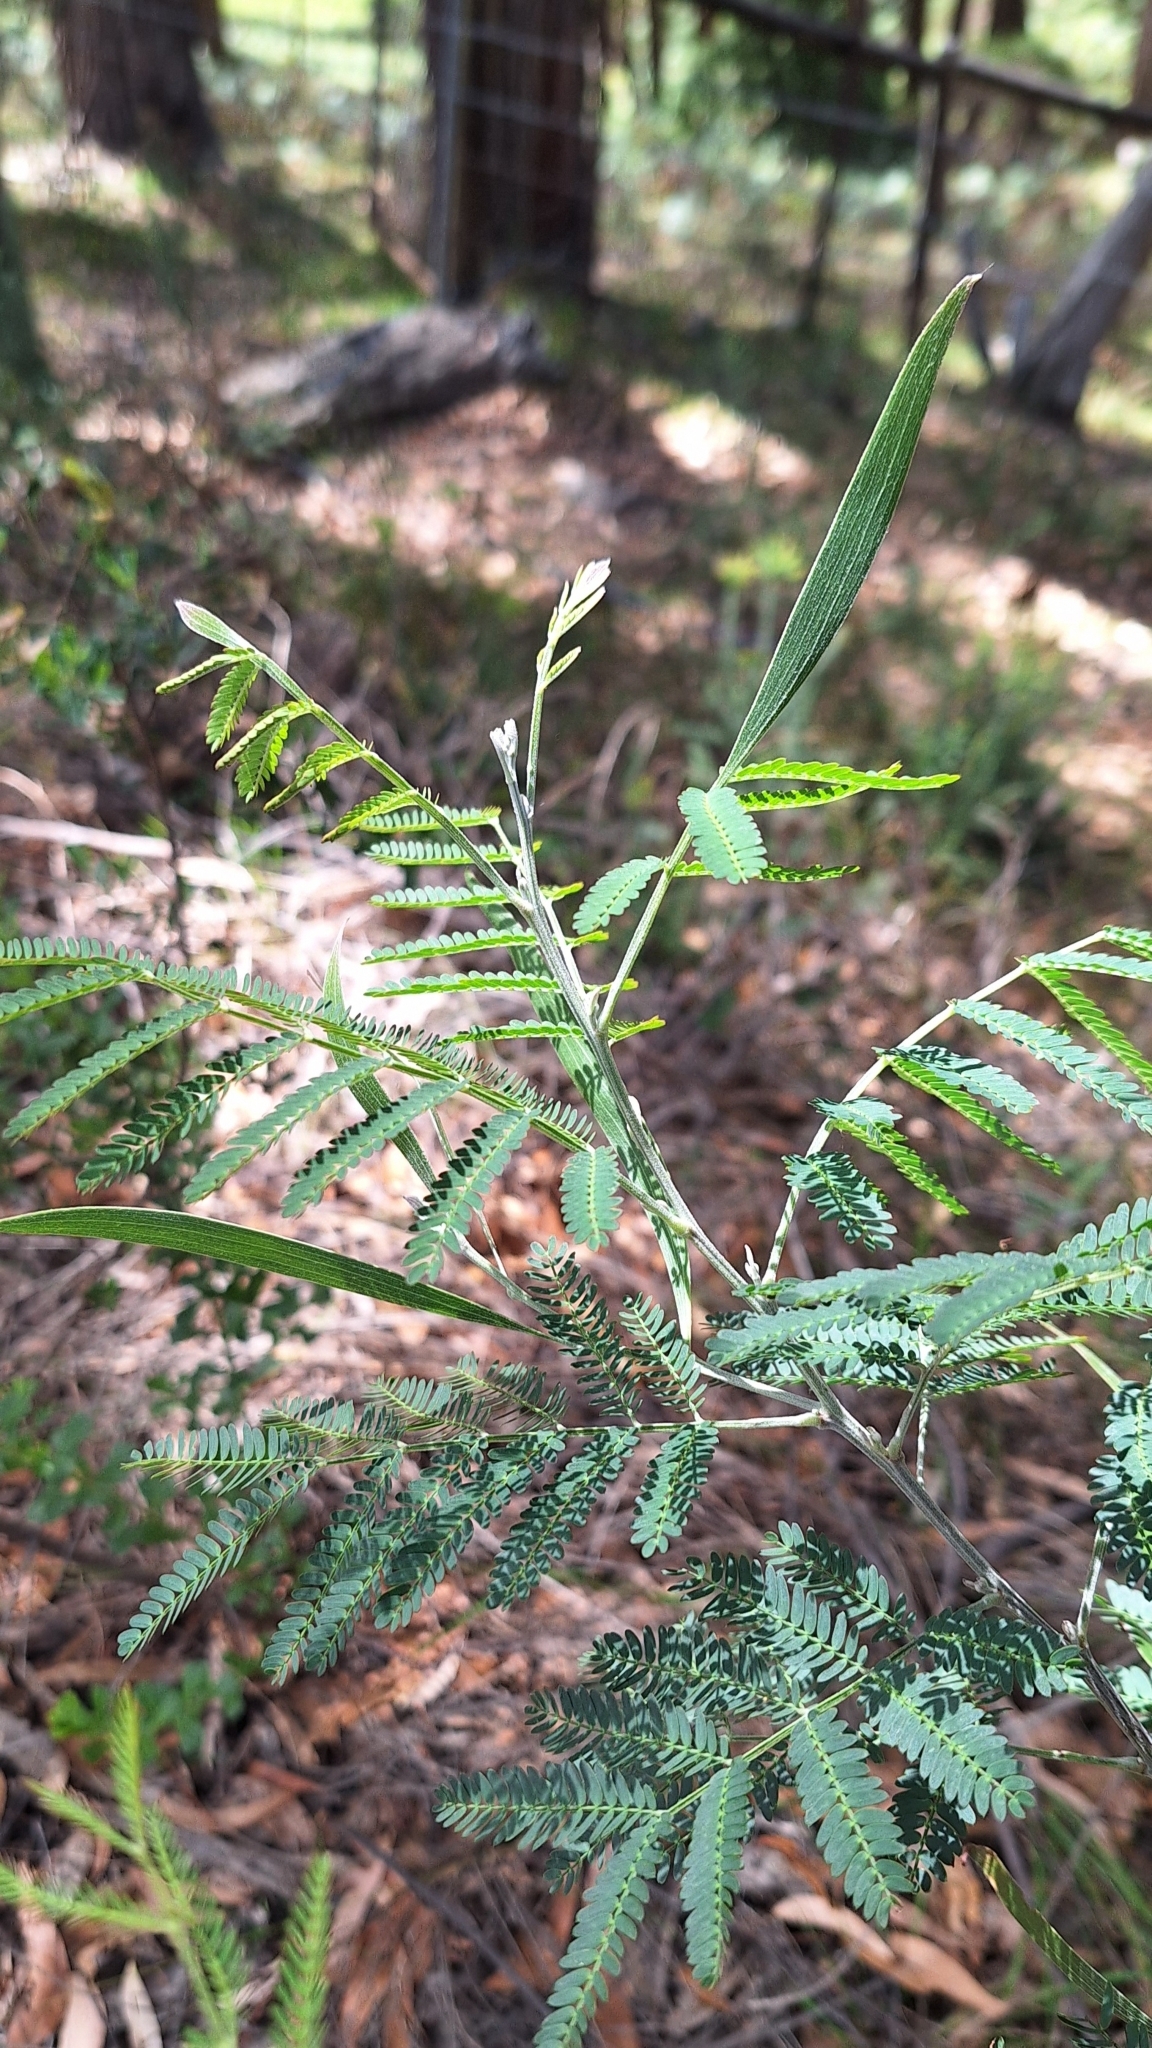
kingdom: Plantae
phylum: Tracheophyta
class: Magnoliopsida
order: Fabales
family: Fabaceae
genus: Acacia
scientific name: Acacia melanoxylon
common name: Blackwood
